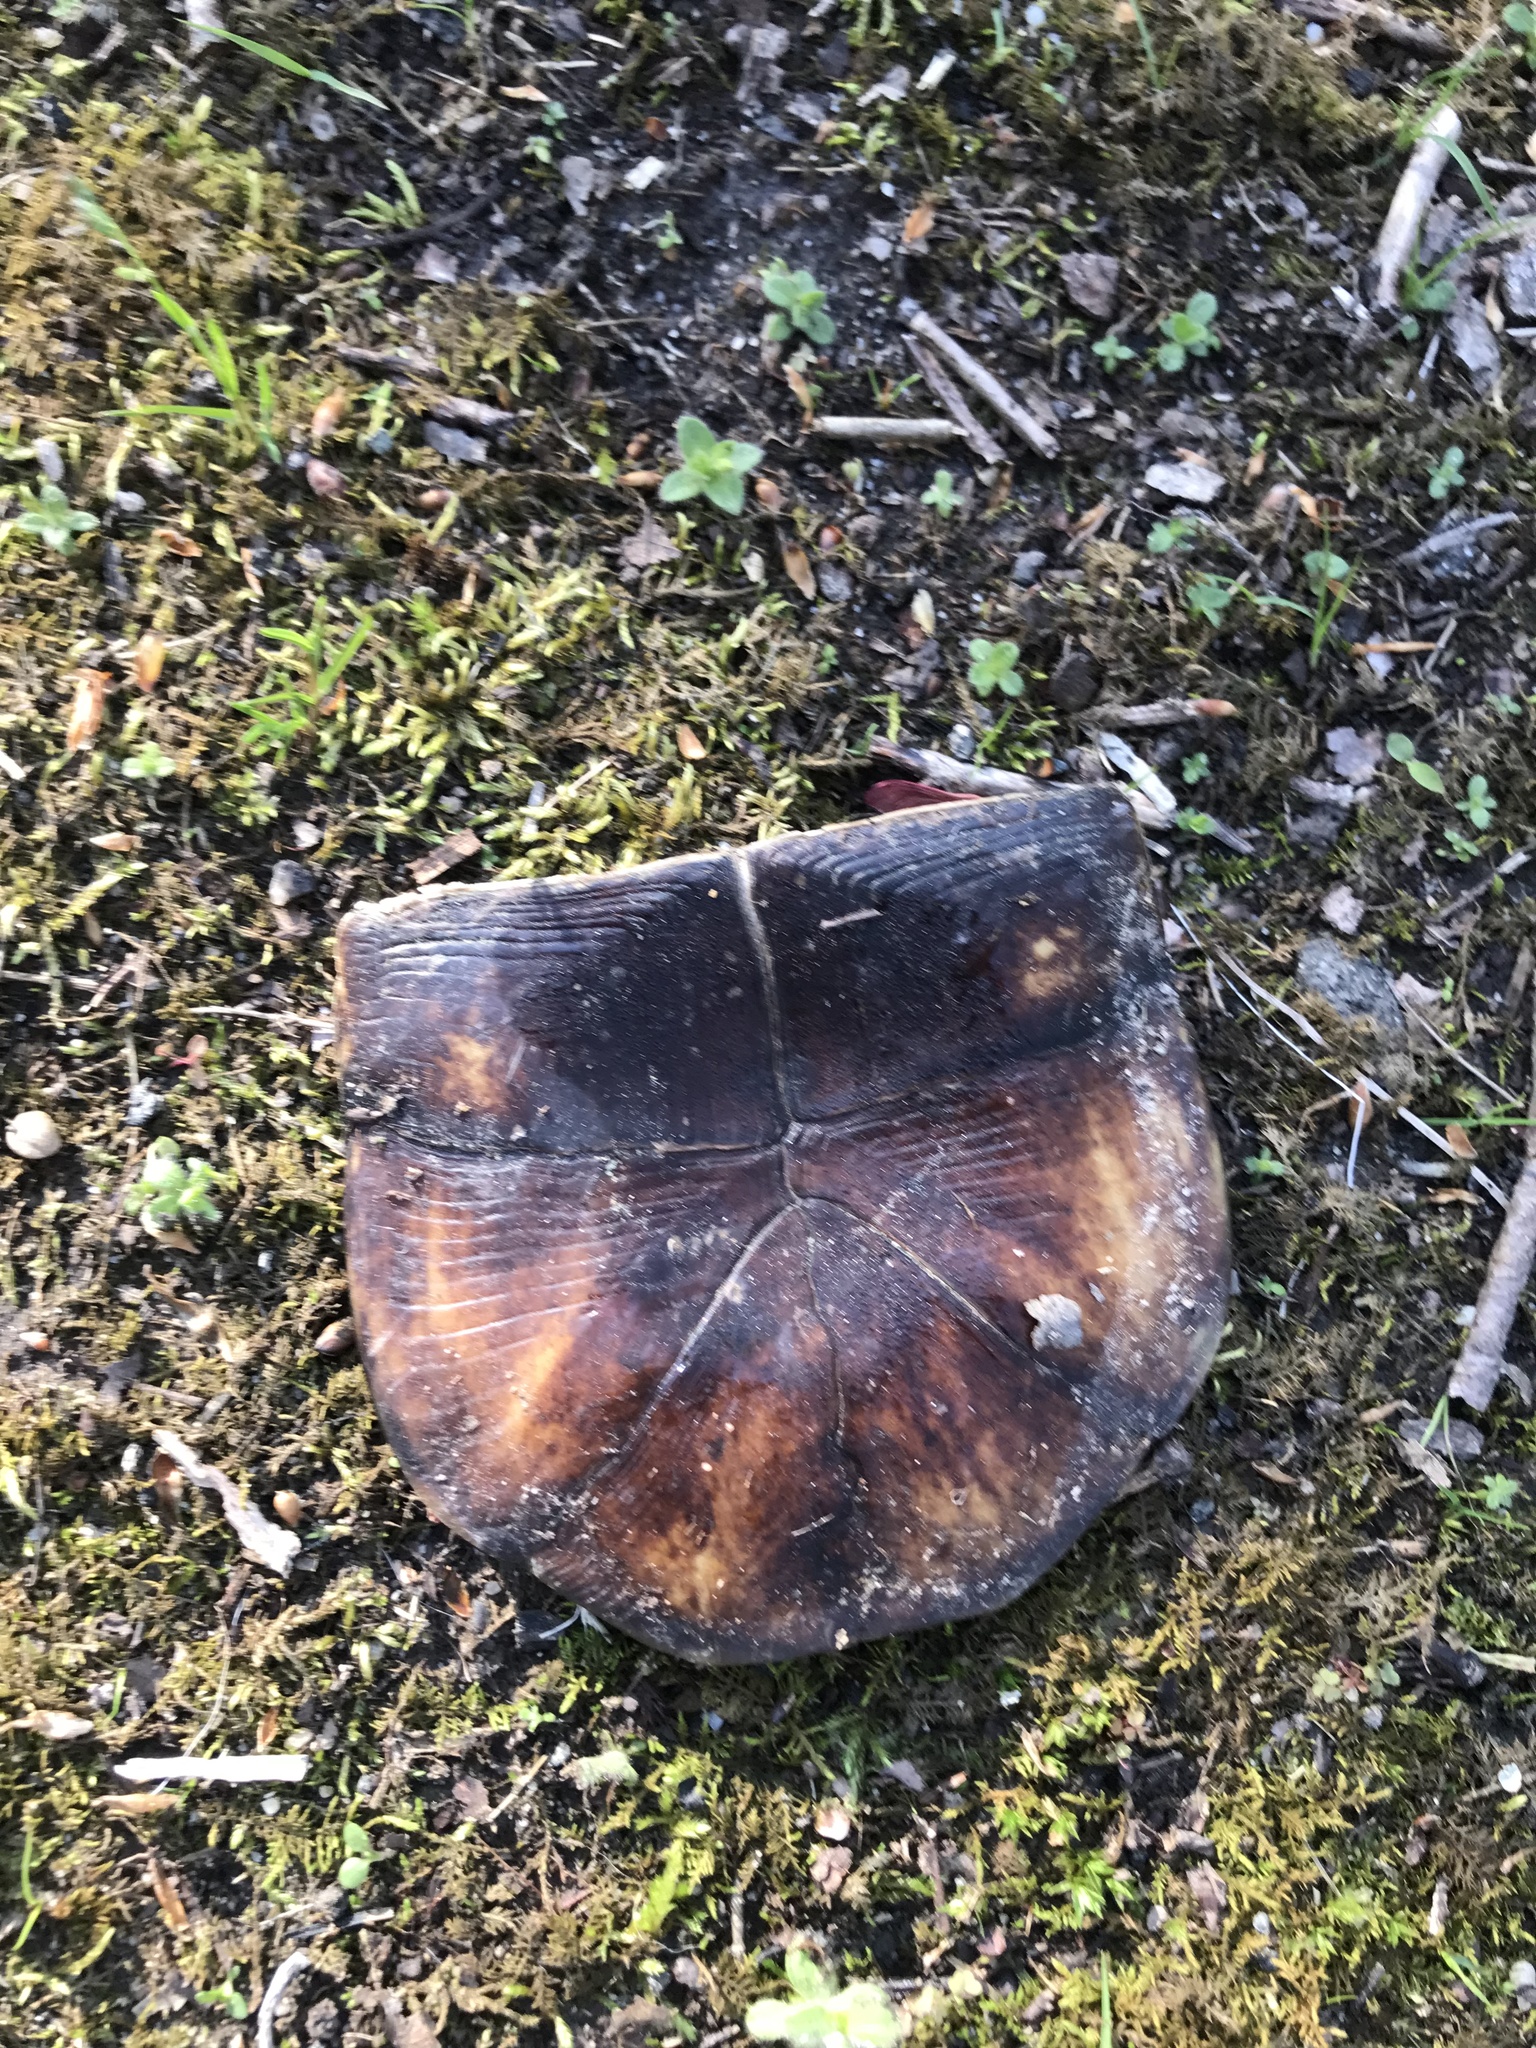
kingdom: Animalia
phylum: Chordata
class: Testudines
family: Emydidae
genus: Terrapene
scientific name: Terrapene carolina
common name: Common box turtle
